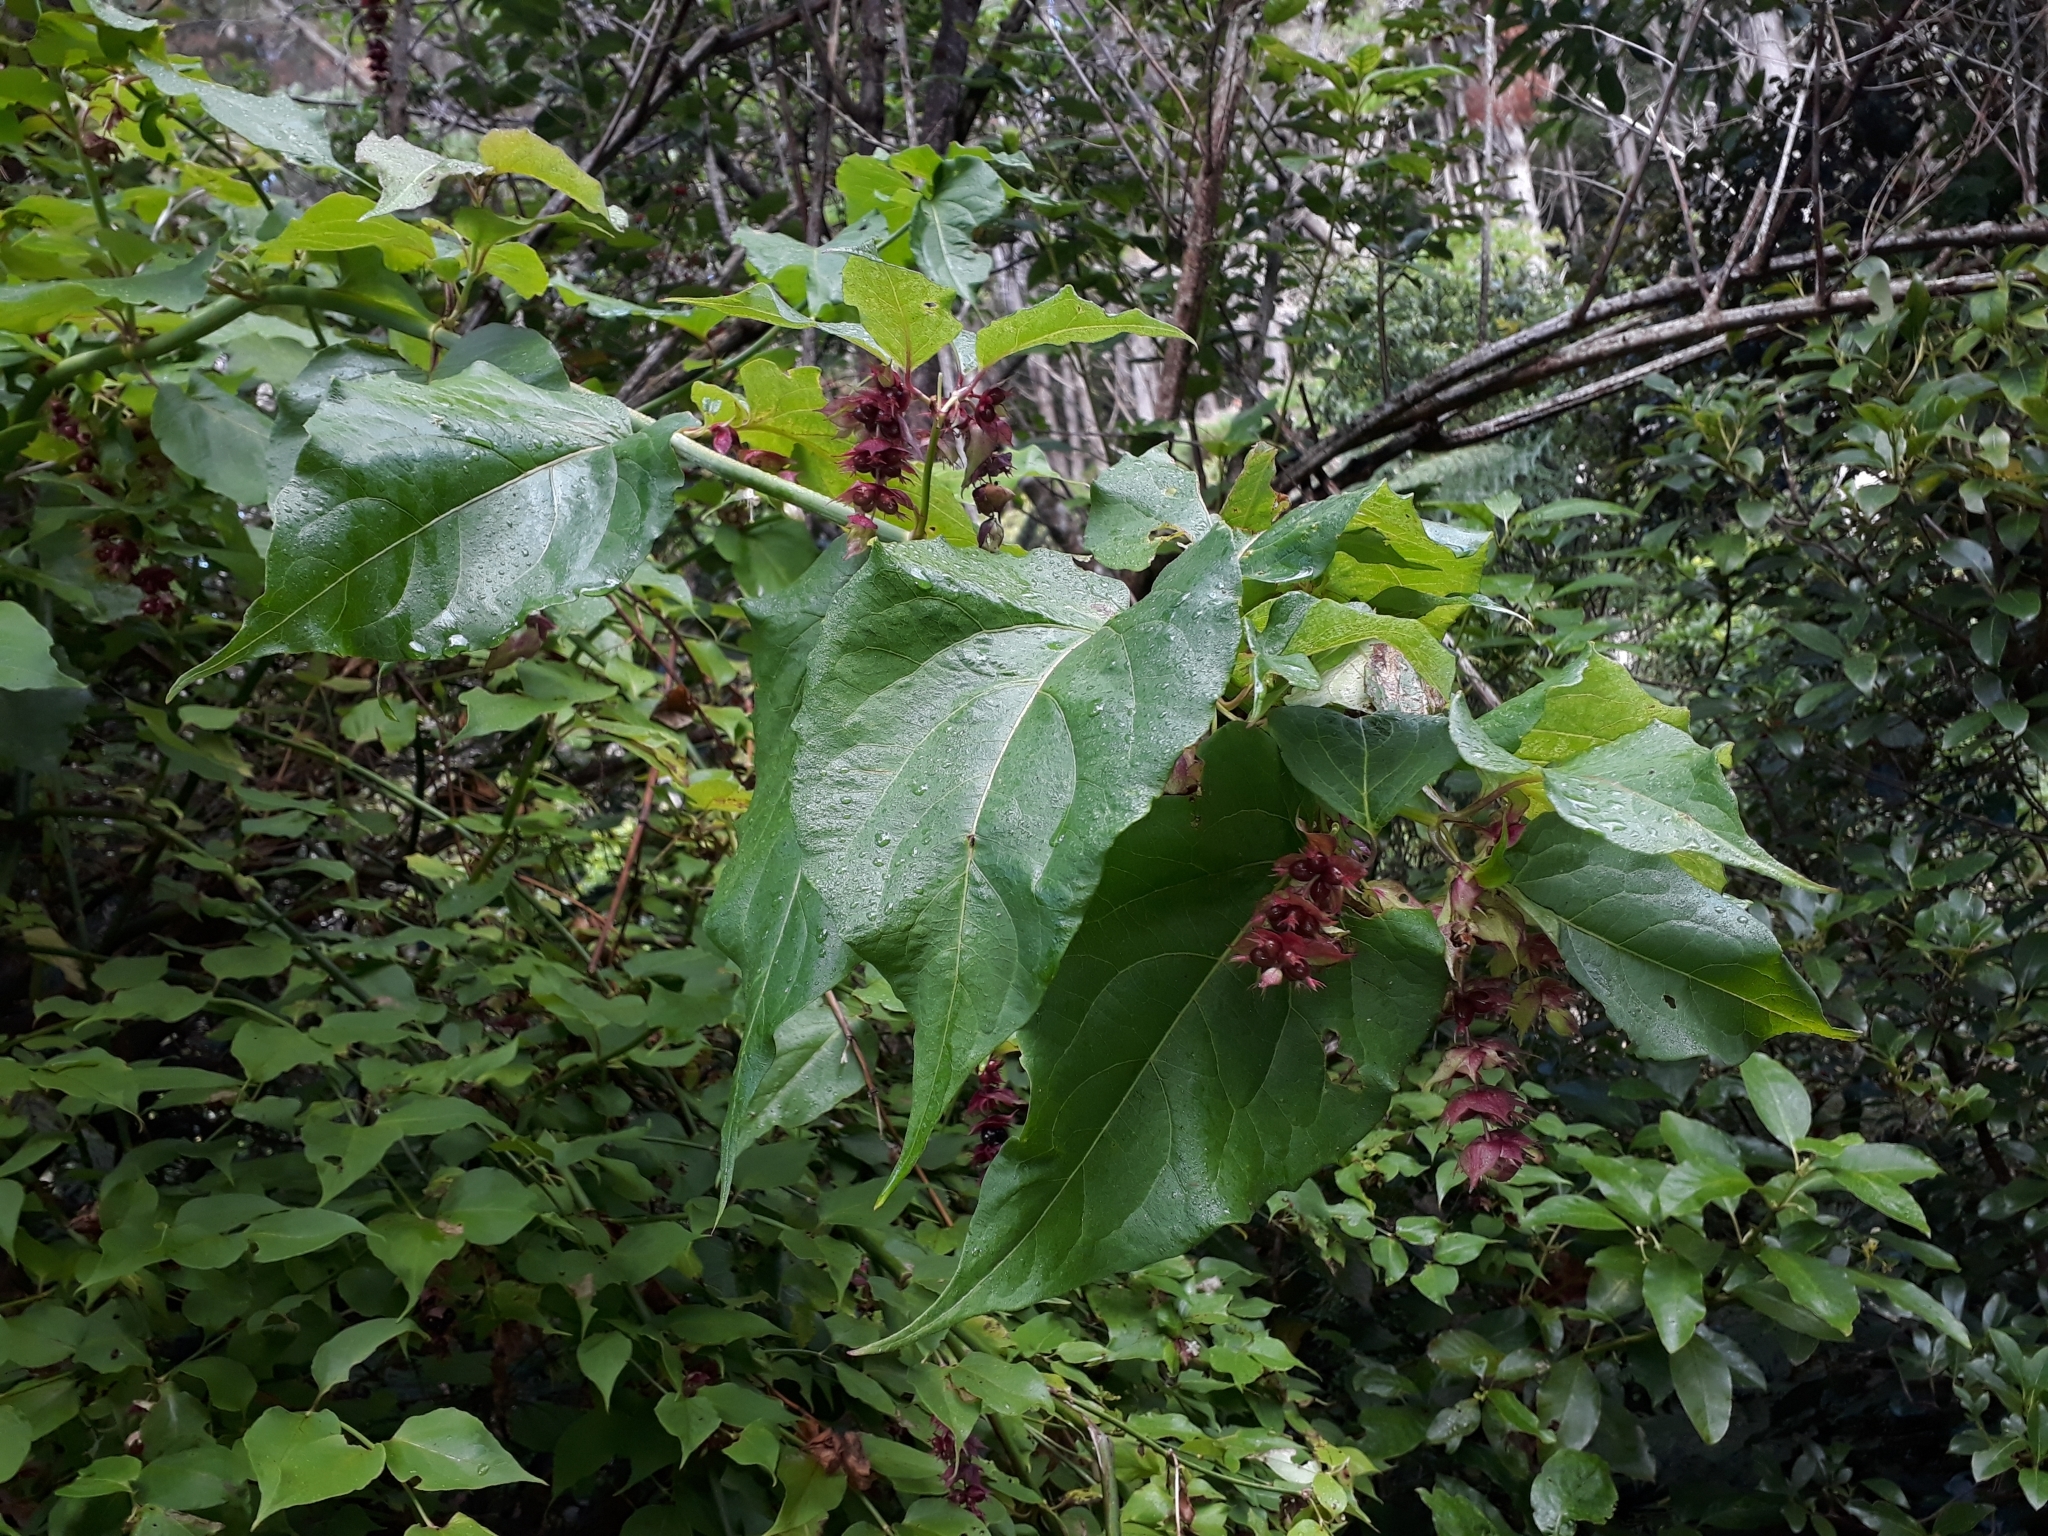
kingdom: Plantae
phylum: Tracheophyta
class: Magnoliopsida
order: Dipsacales
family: Caprifoliaceae
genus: Leycesteria
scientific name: Leycesteria formosa
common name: Himalayan honeysuckle
